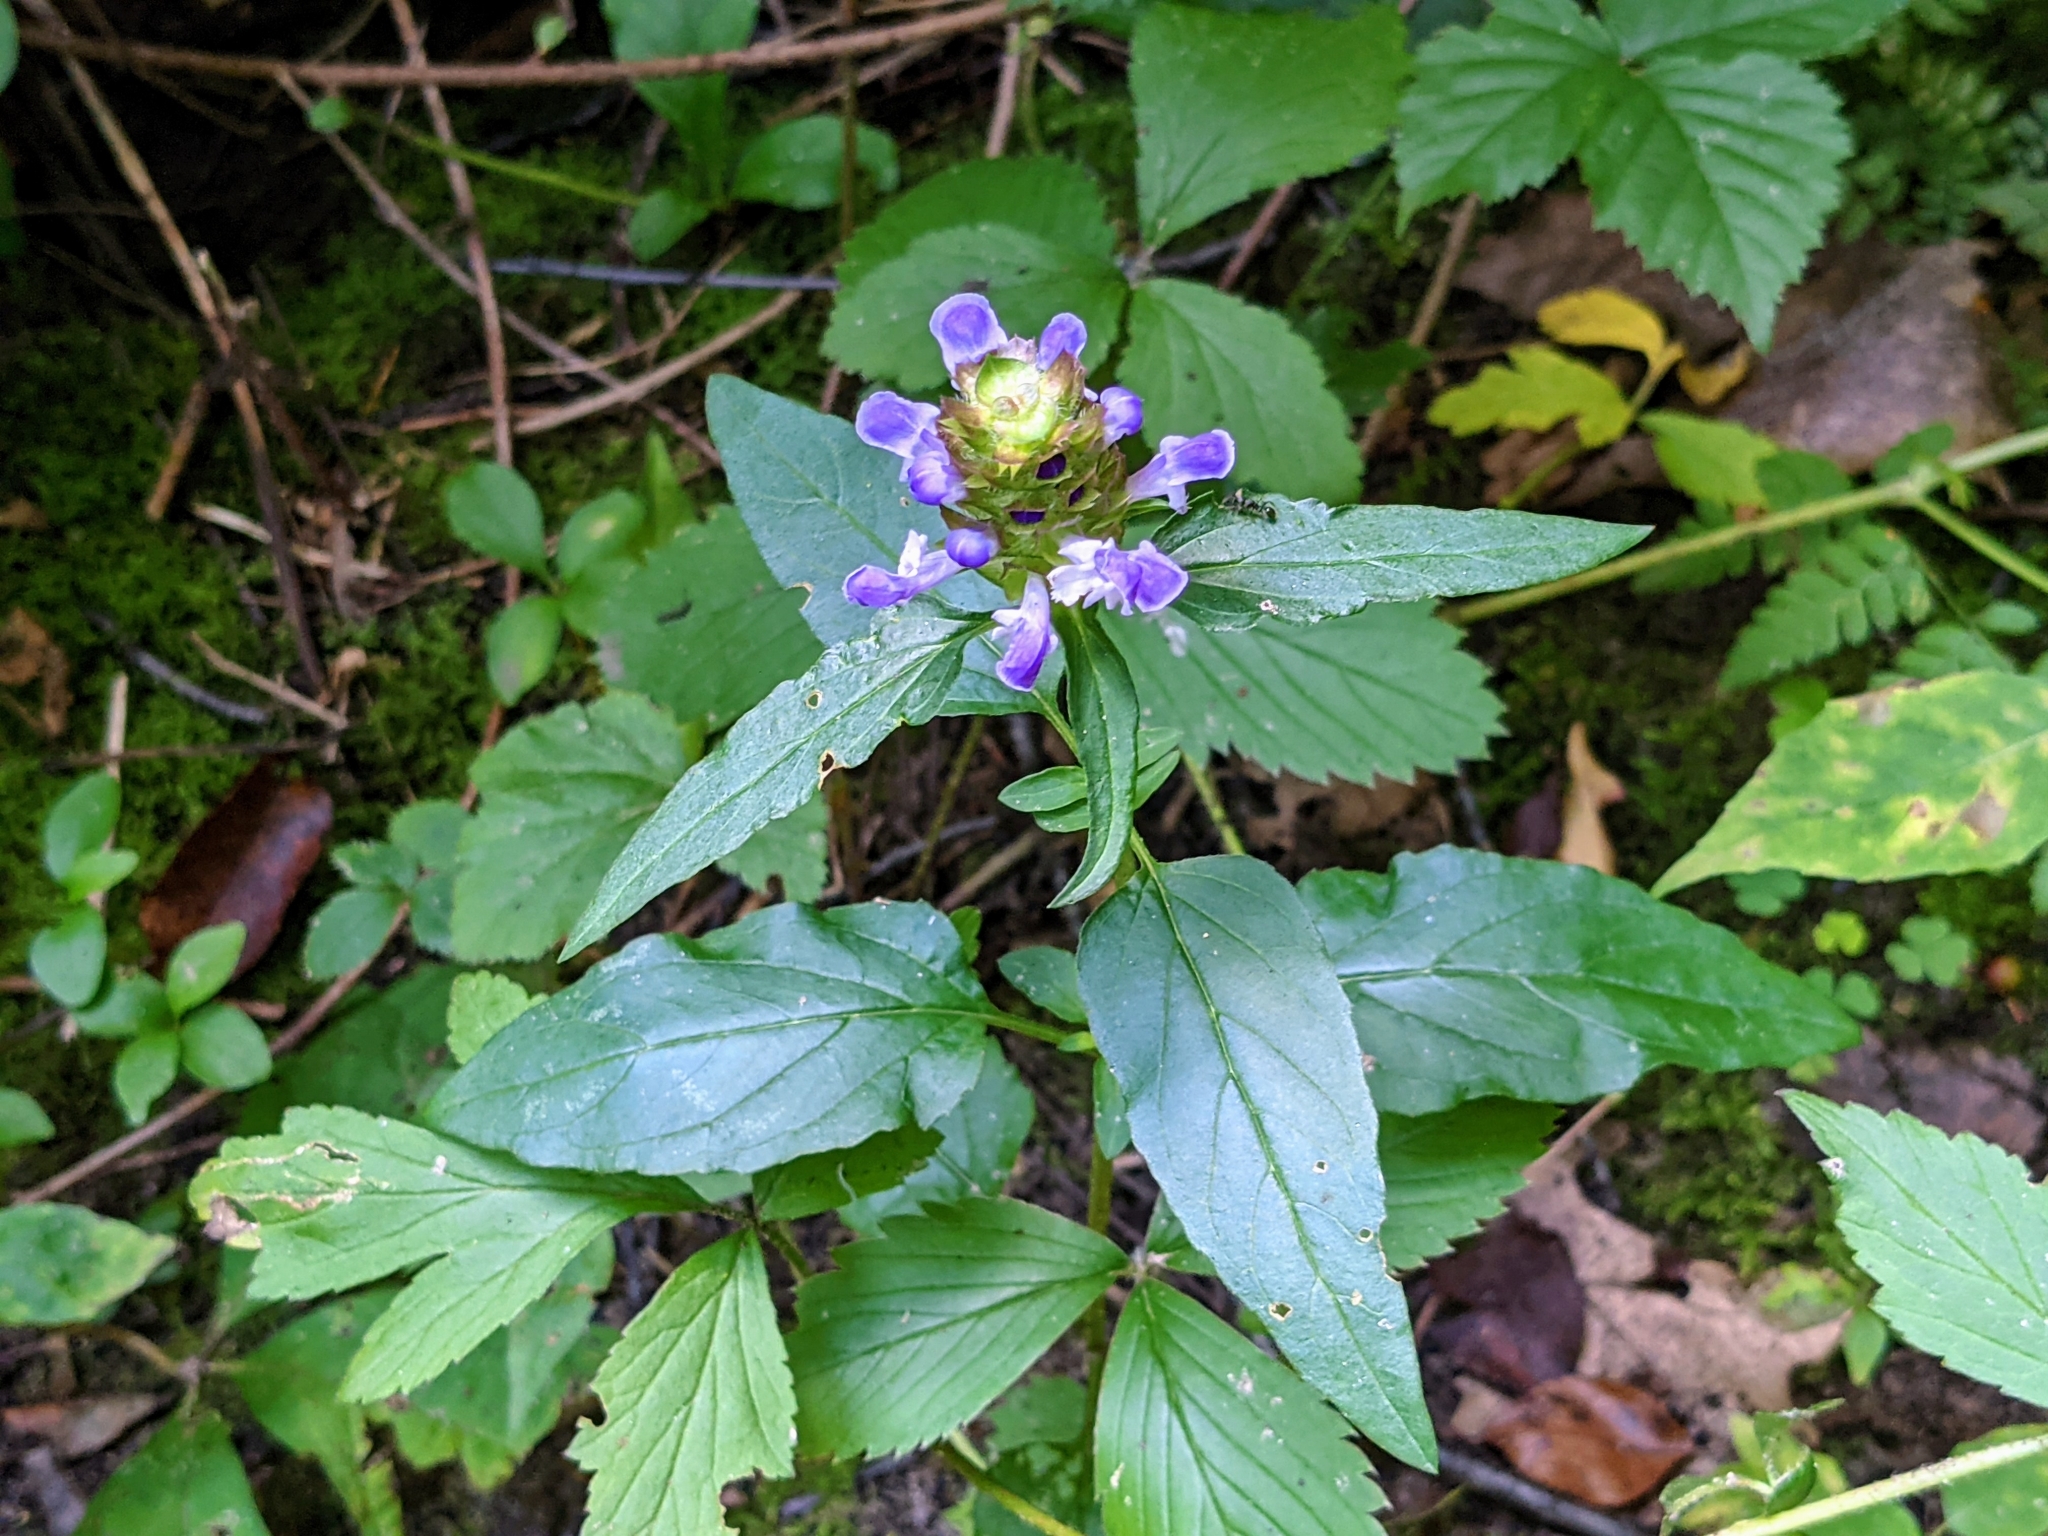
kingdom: Plantae
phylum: Tracheophyta
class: Magnoliopsida
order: Lamiales
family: Lamiaceae
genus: Prunella
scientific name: Prunella vulgaris
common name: Heal-all
